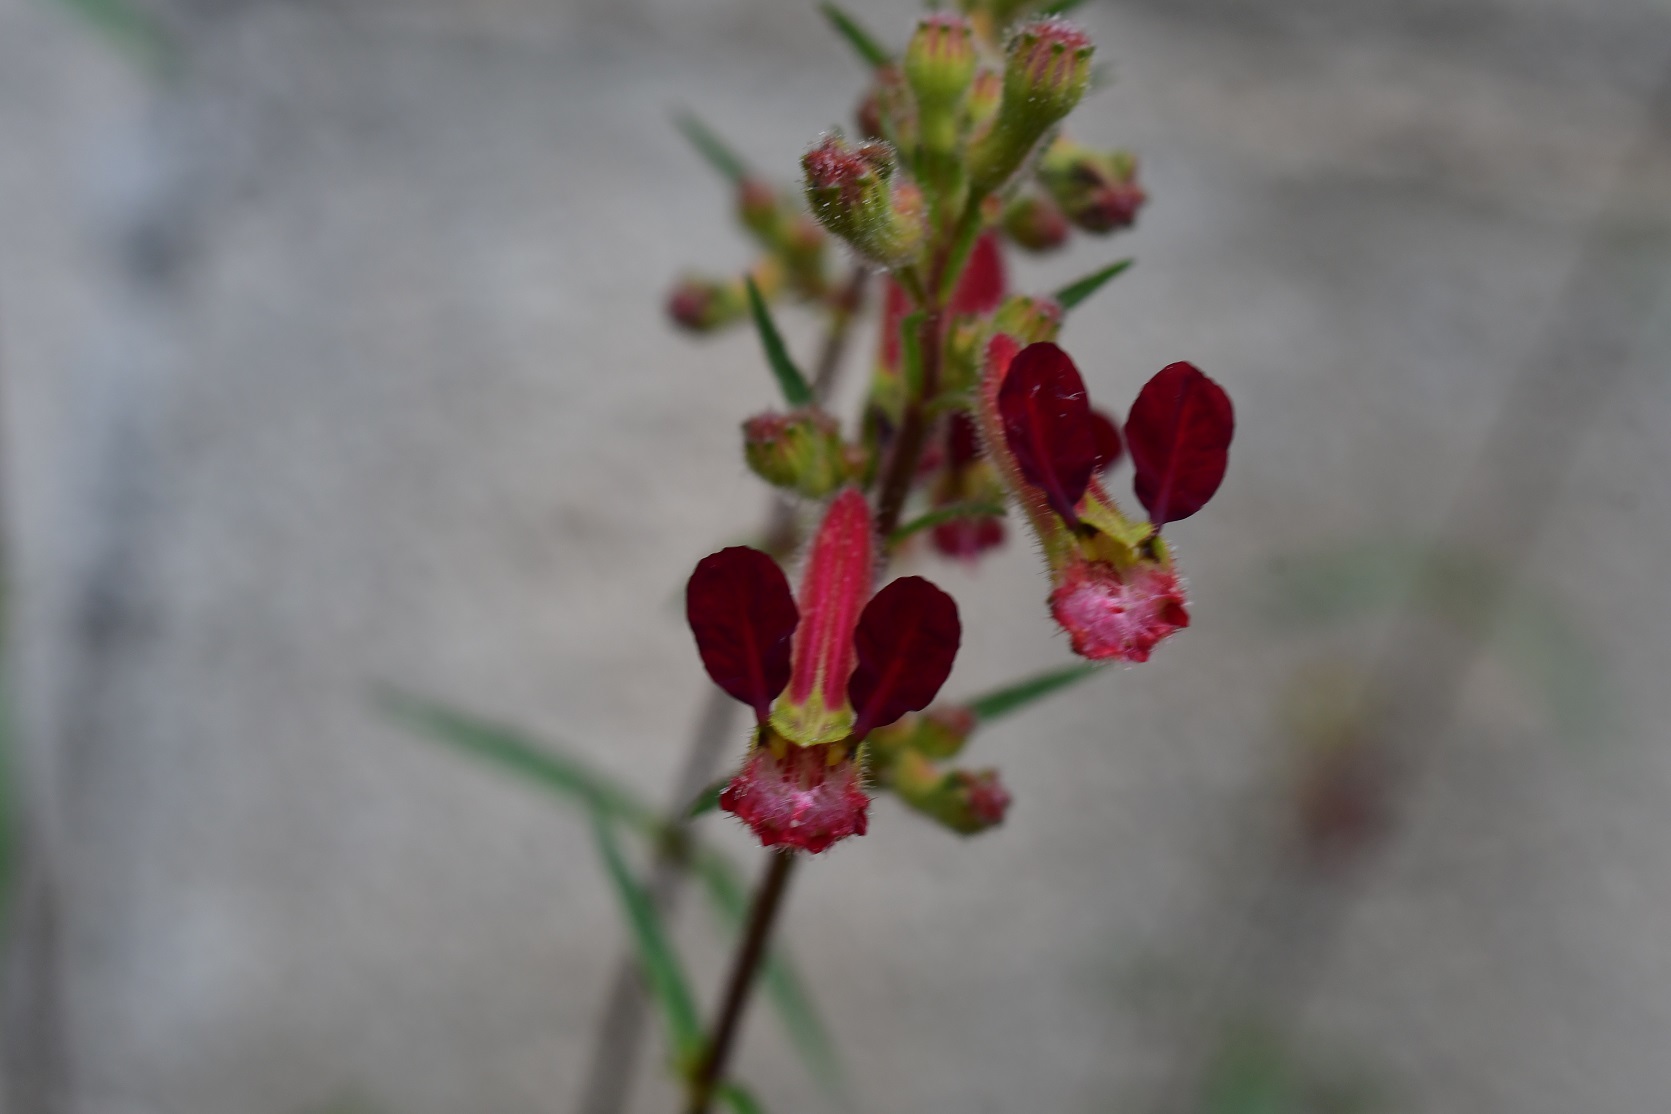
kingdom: Plantae
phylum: Tracheophyta
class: Magnoliopsida
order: Myrtales
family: Lythraceae
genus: Cuphea
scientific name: Cuphea hookeriana
